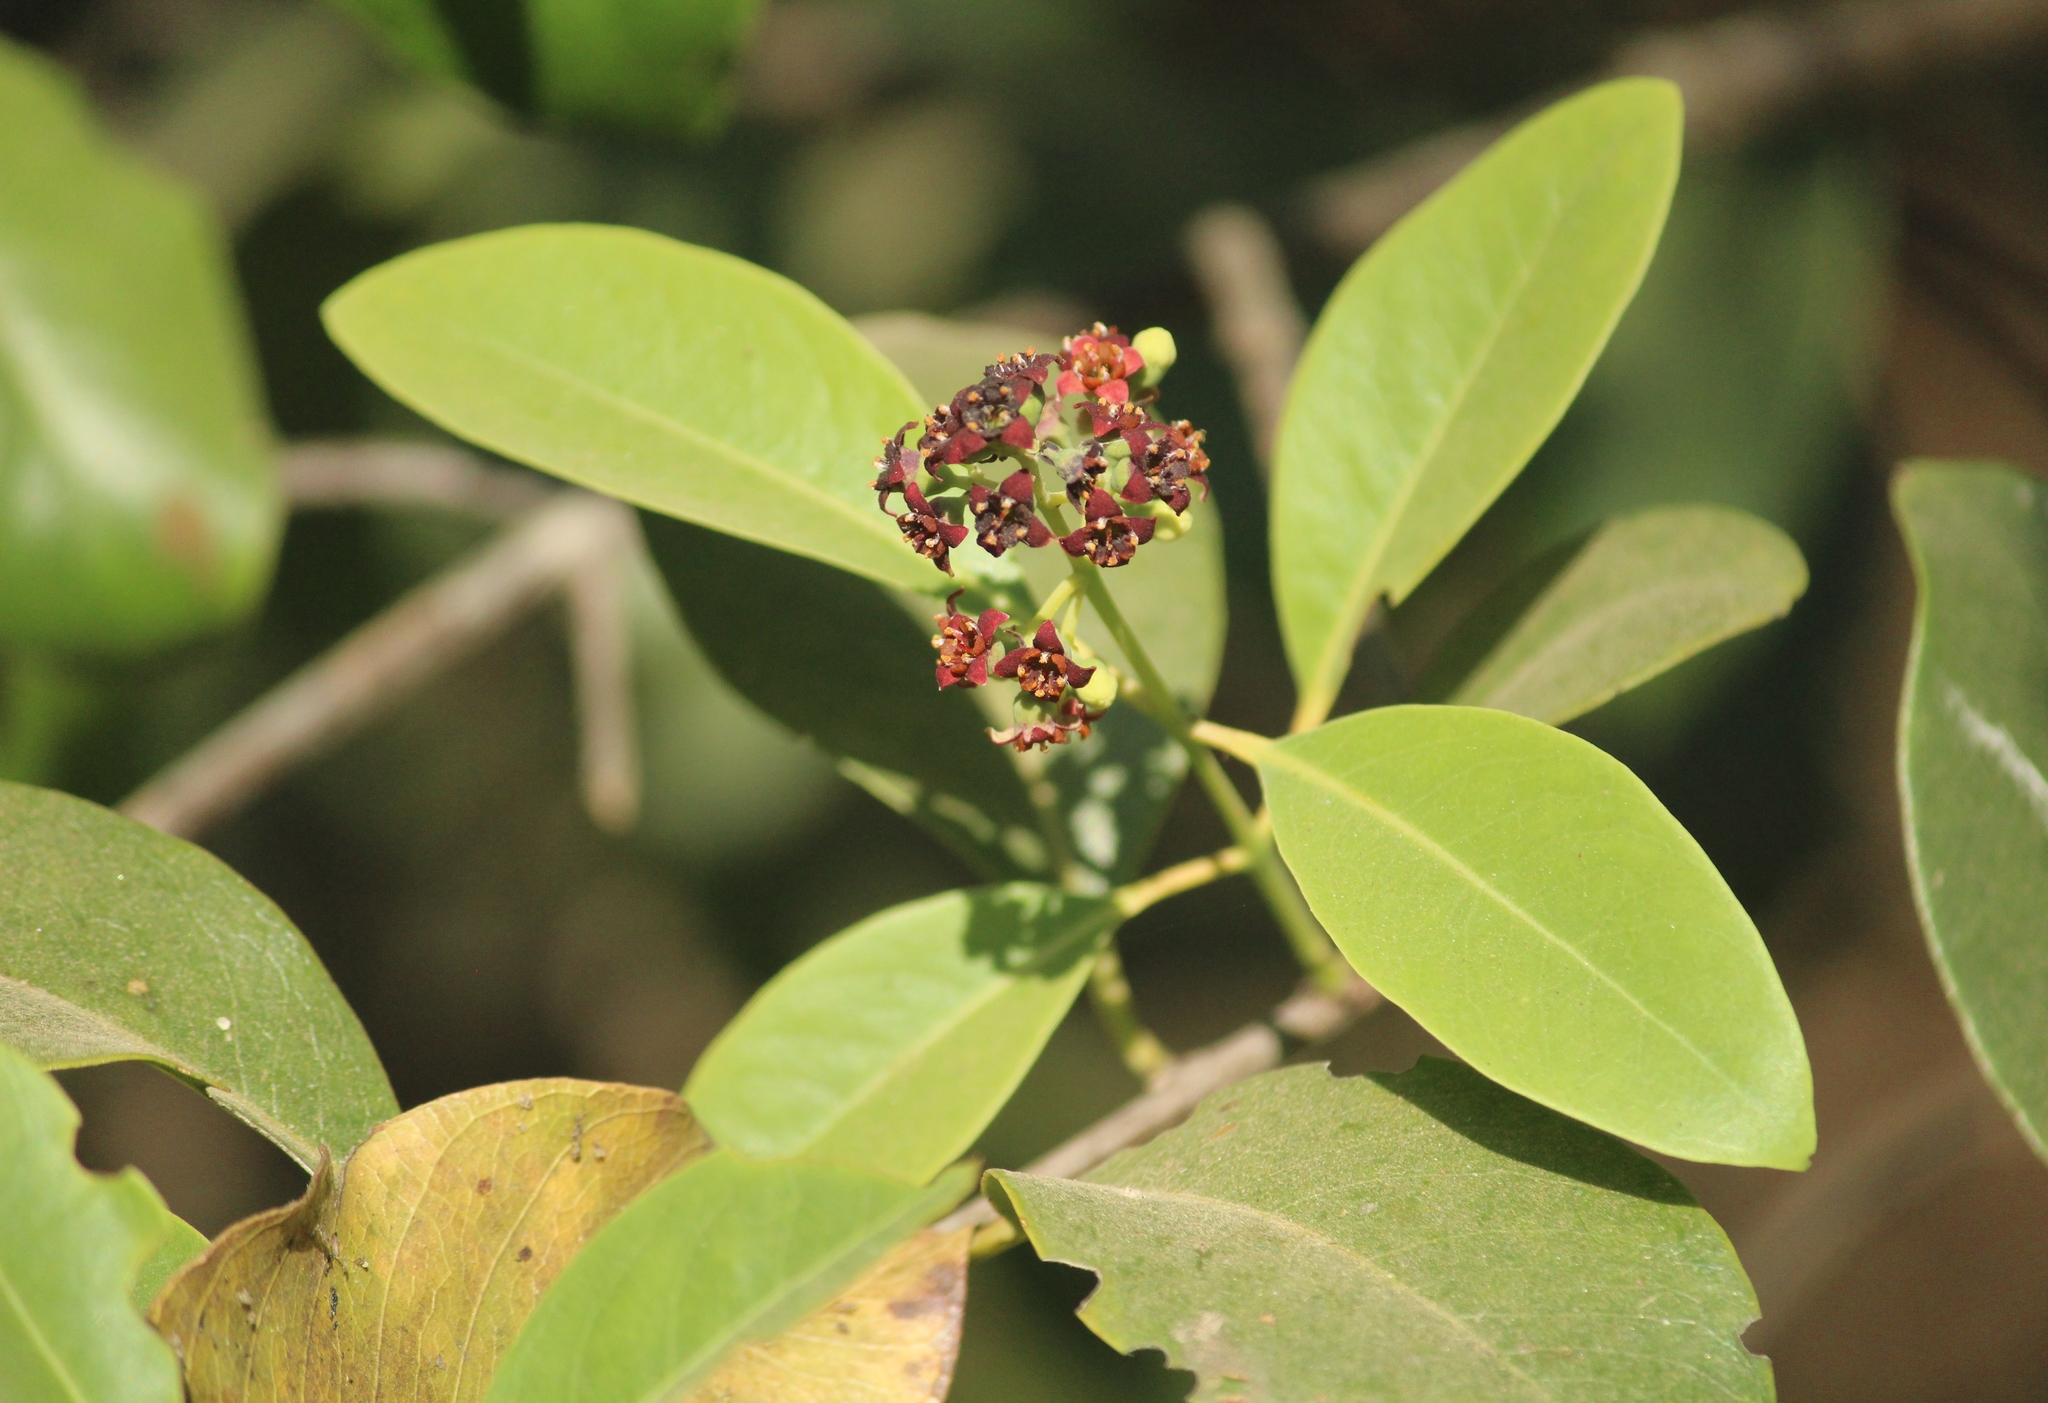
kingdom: Plantae
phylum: Tracheophyta
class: Magnoliopsida
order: Santalales
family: Santalaceae
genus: Santalum
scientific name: Santalum album
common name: Indian sandalwood
